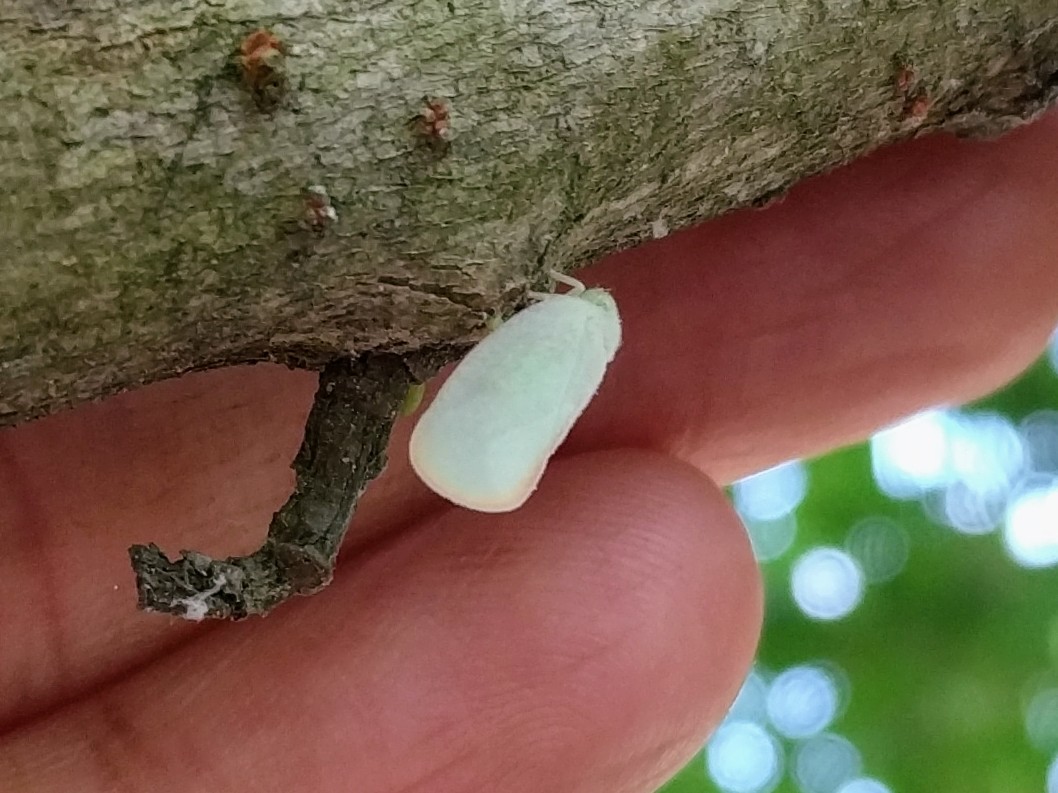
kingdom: Animalia
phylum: Arthropoda
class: Insecta
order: Hemiptera
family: Flatidae
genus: Ormenoides
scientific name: Ormenoides venusta
